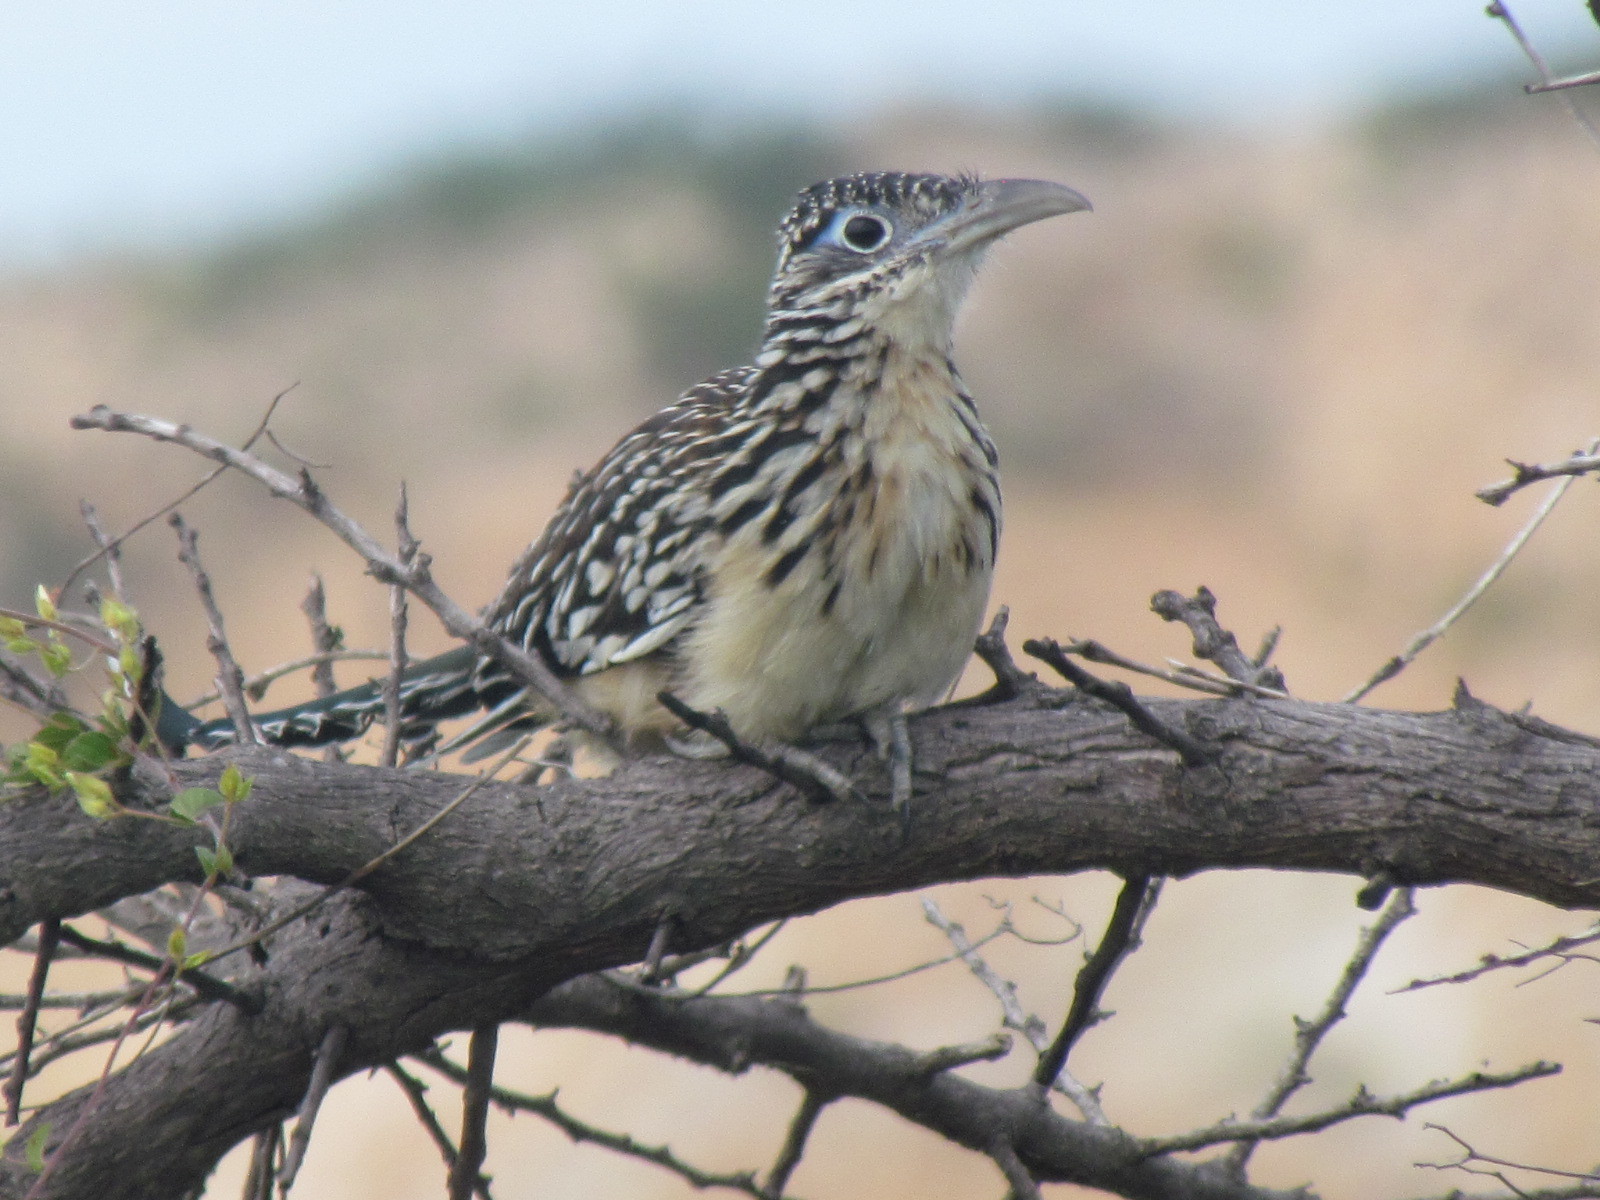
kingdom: Animalia
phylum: Chordata
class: Aves
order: Cuculiformes
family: Cuculidae
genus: Geococcyx
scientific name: Geococcyx velox
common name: Lesser roadrunner
